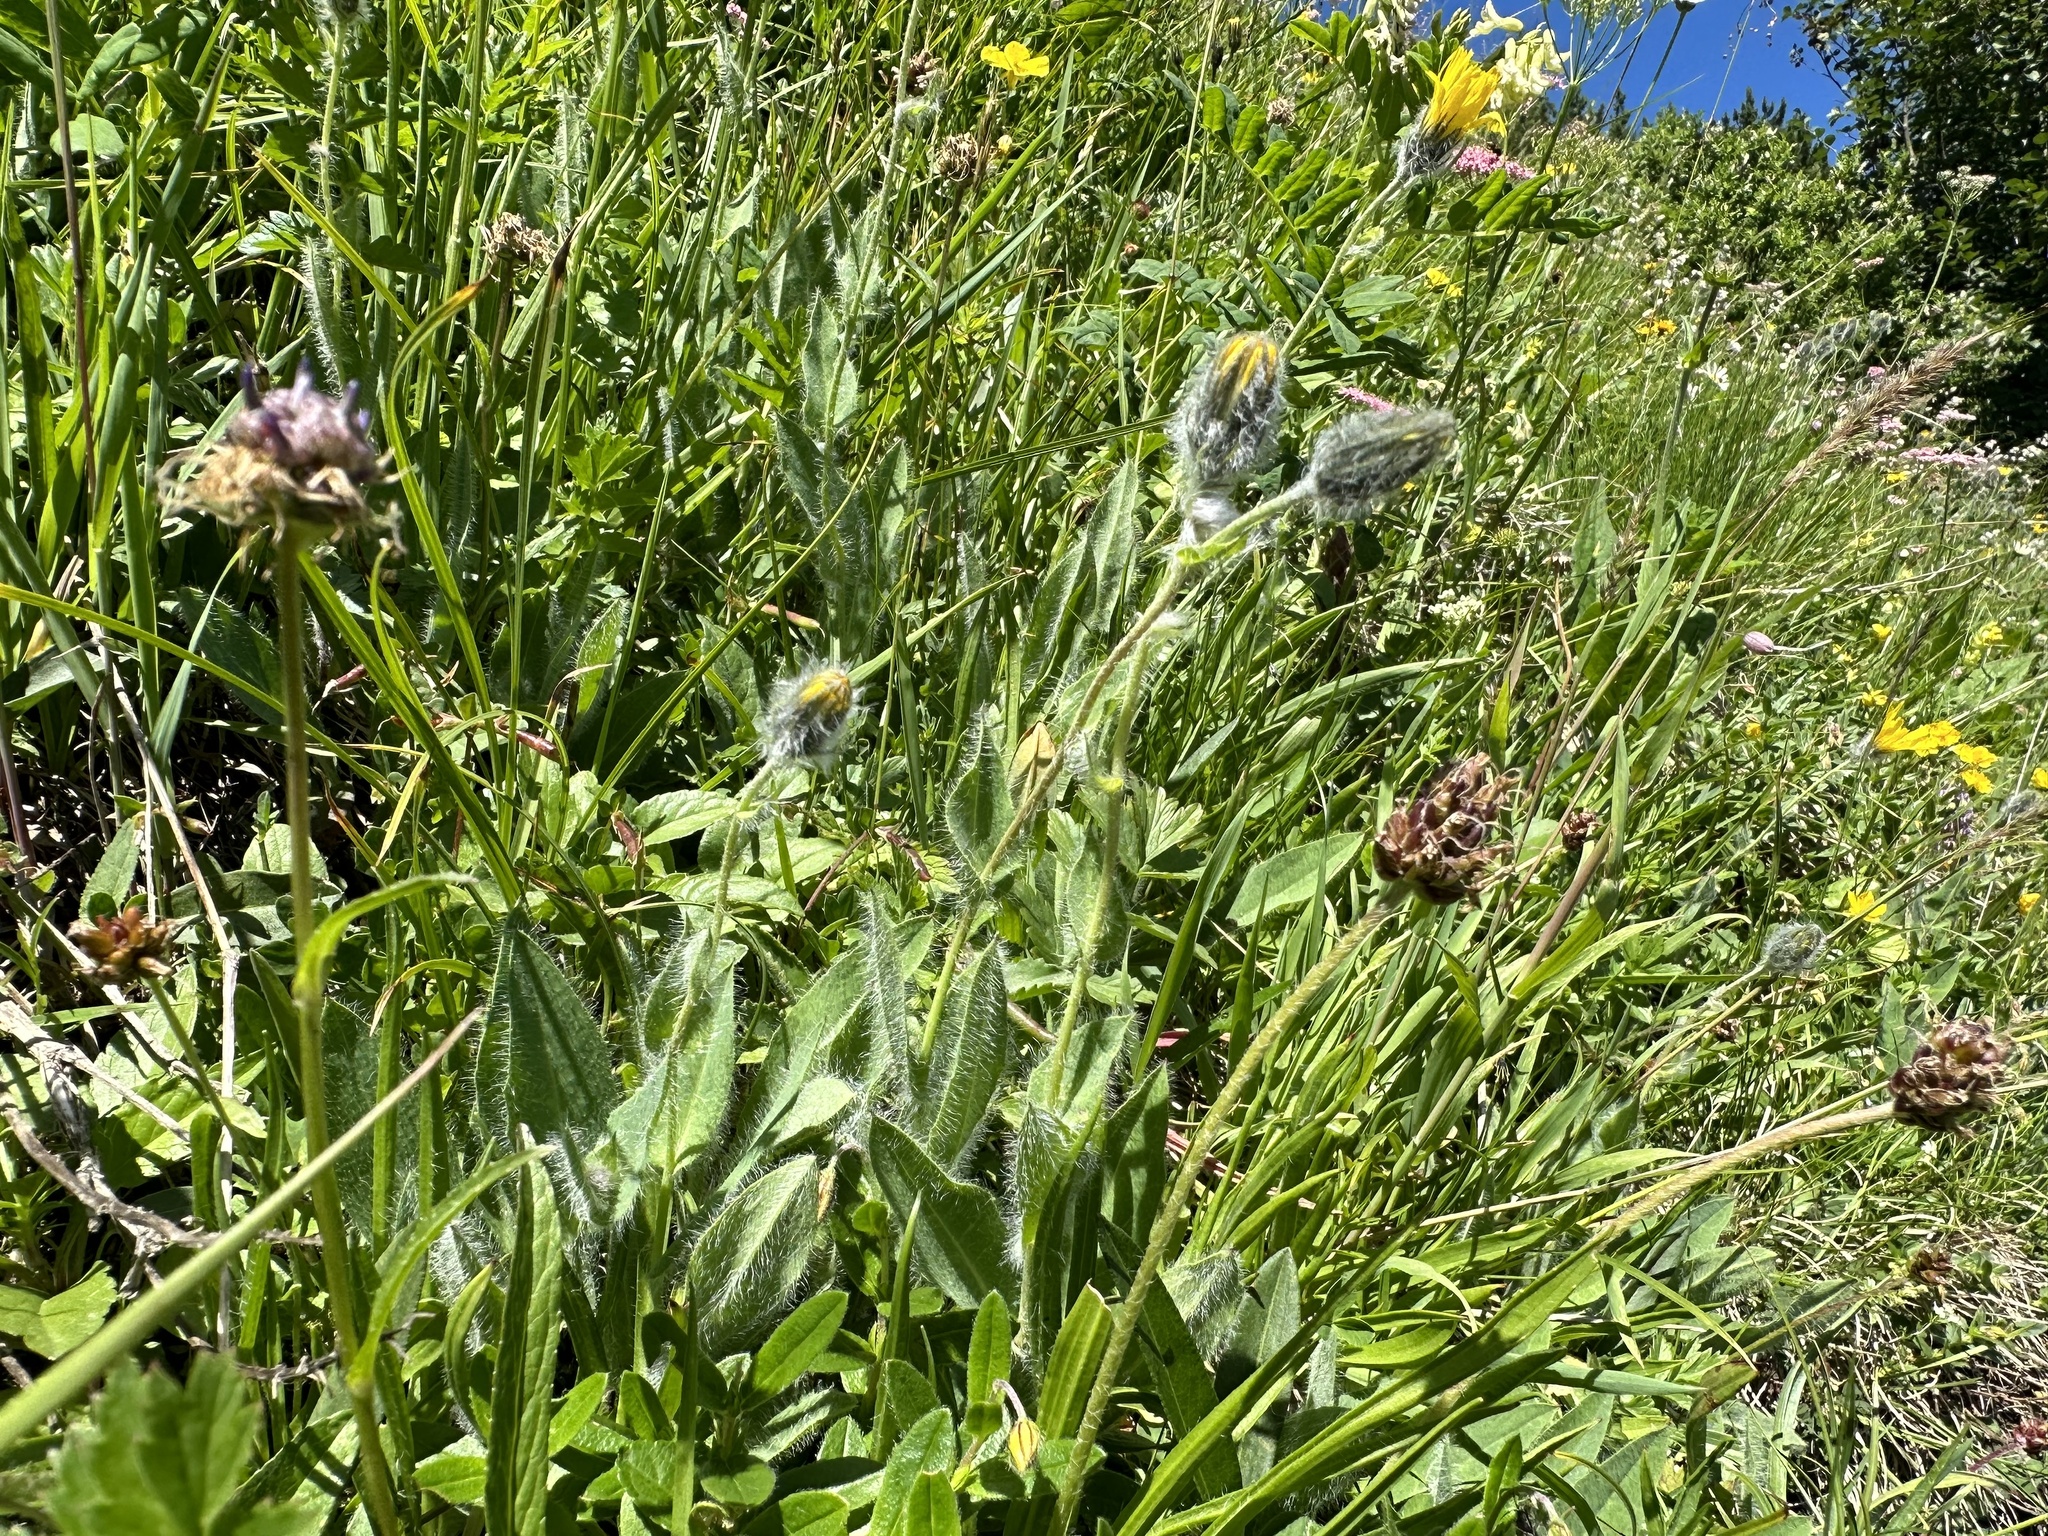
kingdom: Plantae
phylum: Tracheophyta
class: Magnoliopsida
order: Asterales
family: Asteraceae
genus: Hieracium
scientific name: Hieracium villosum
